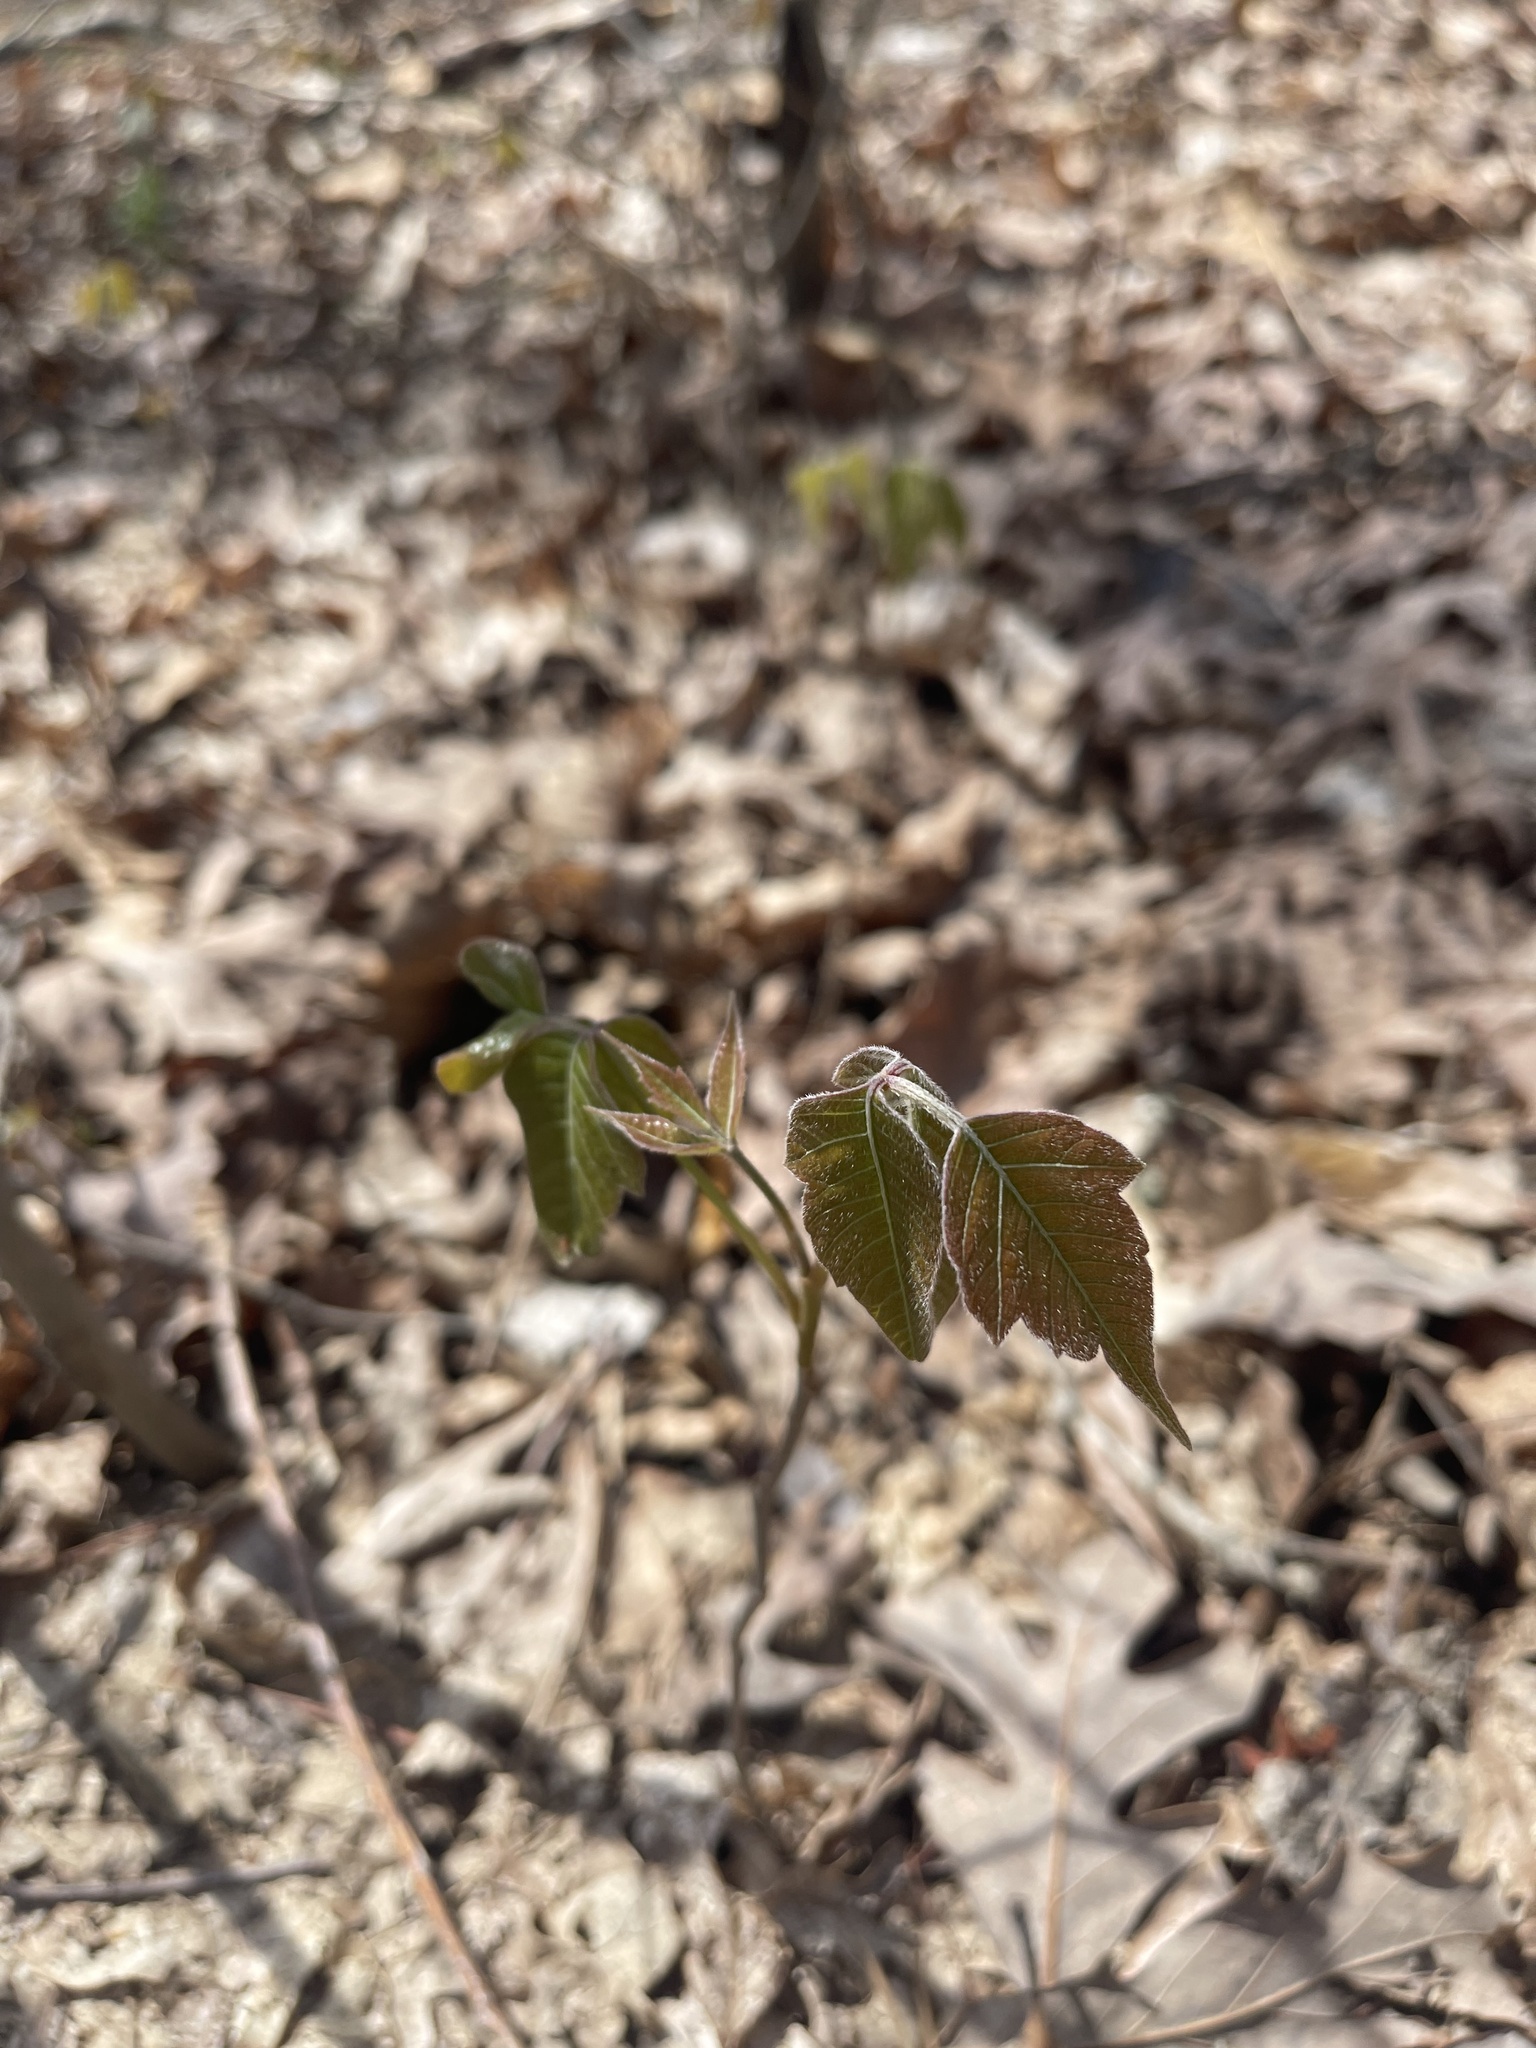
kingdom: Plantae
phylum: Tracheophyta
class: Magnoliopsida
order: Sapindales
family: Anacardiaceae
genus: Toxicodendron
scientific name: Toxicodendron radicans
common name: Poison ivy
